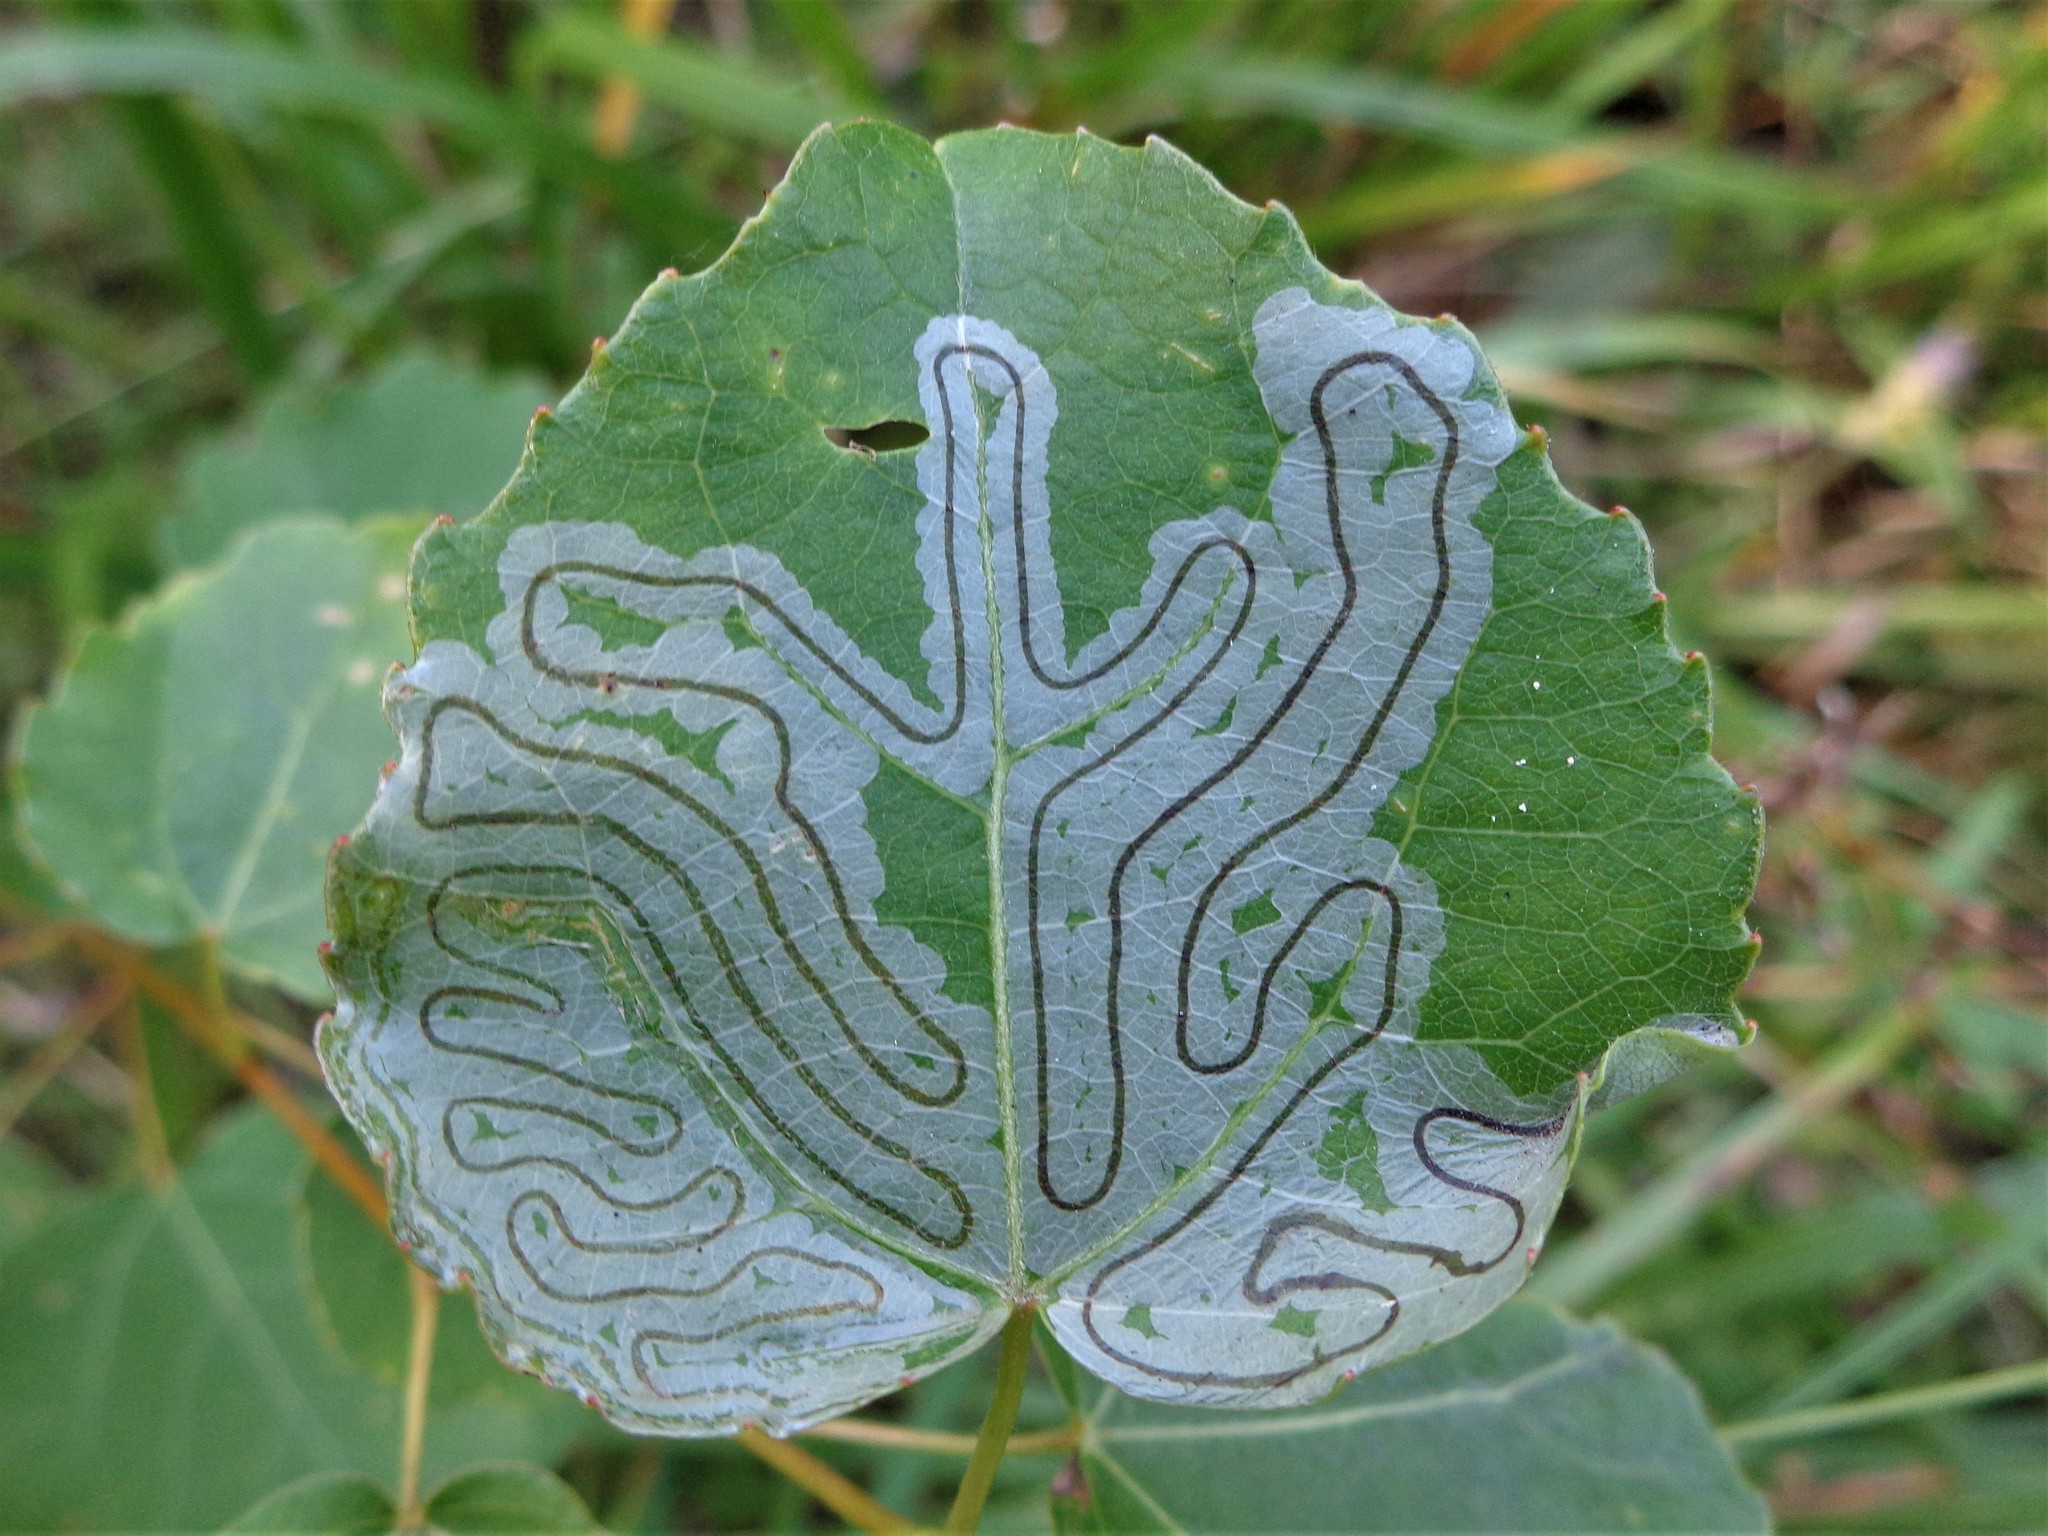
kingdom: Animalia
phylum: Arthropoda
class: Insecta
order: Lepidoptera
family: Gracillariidae
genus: Phyllocnistis
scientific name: Phyllocnistis labyrinthella
